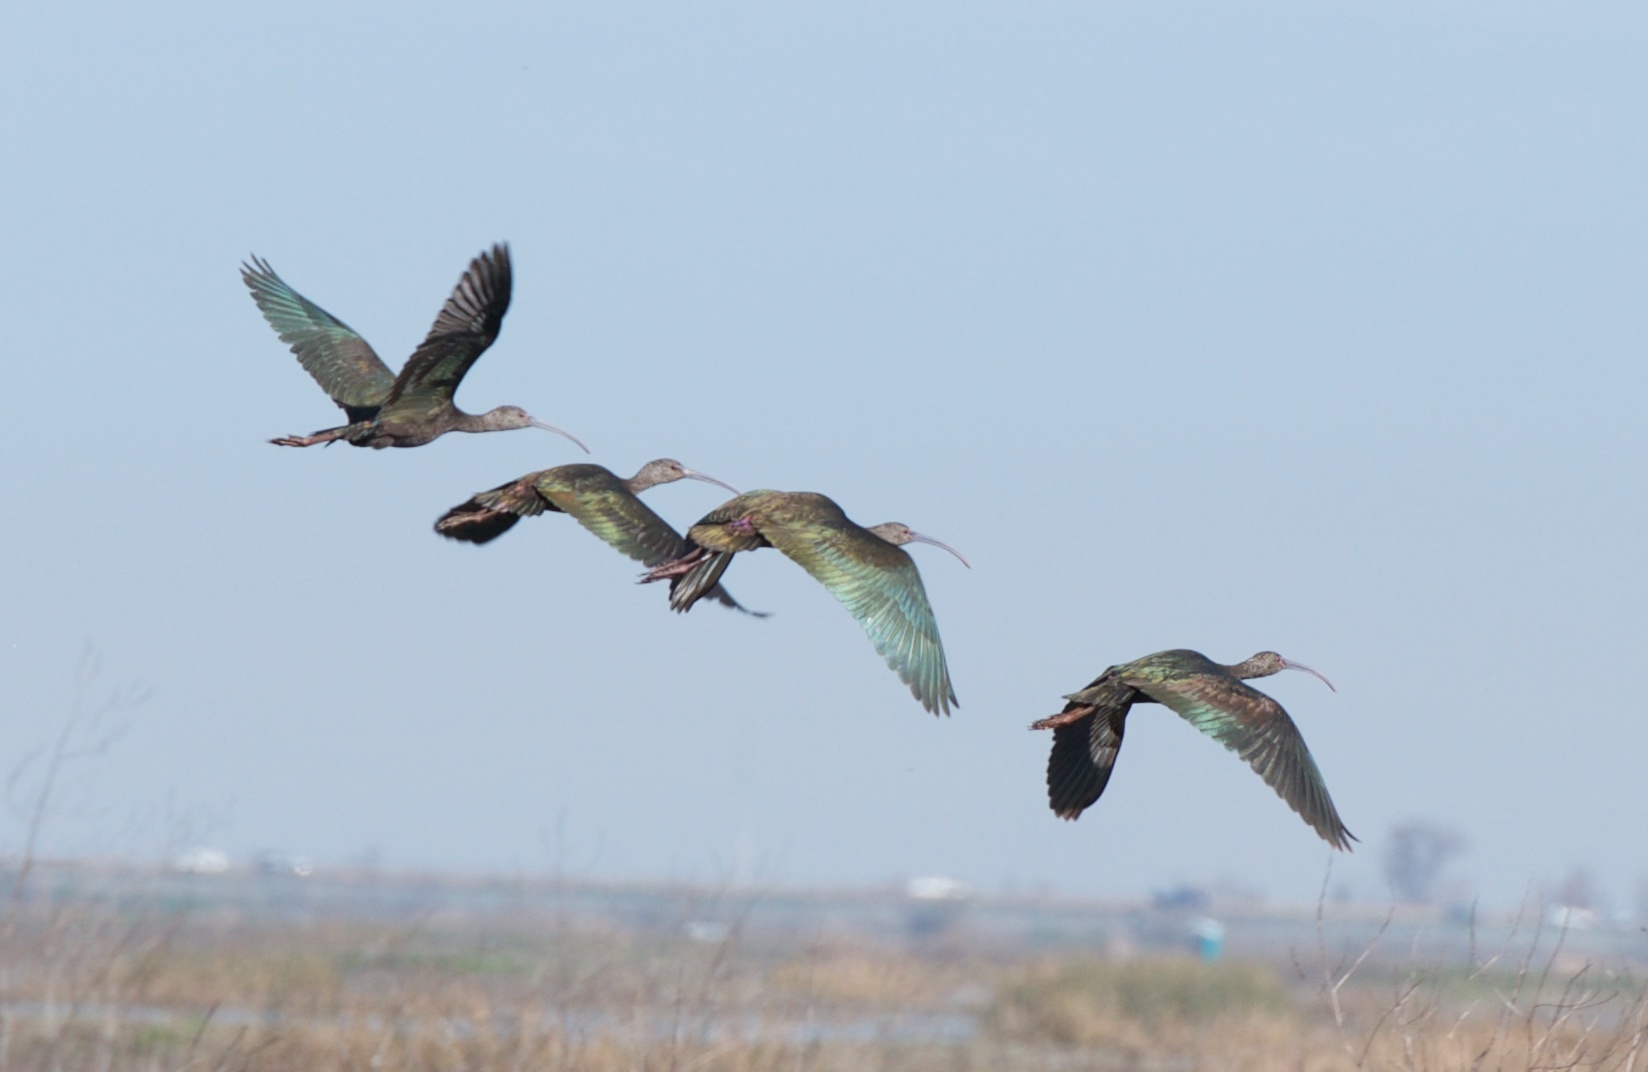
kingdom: Animalia
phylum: Chordata
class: Aves
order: Pelecaniformes
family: Threskiornithidae
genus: Plegadis
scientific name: Plegadis chihi
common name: White-faced ibis
